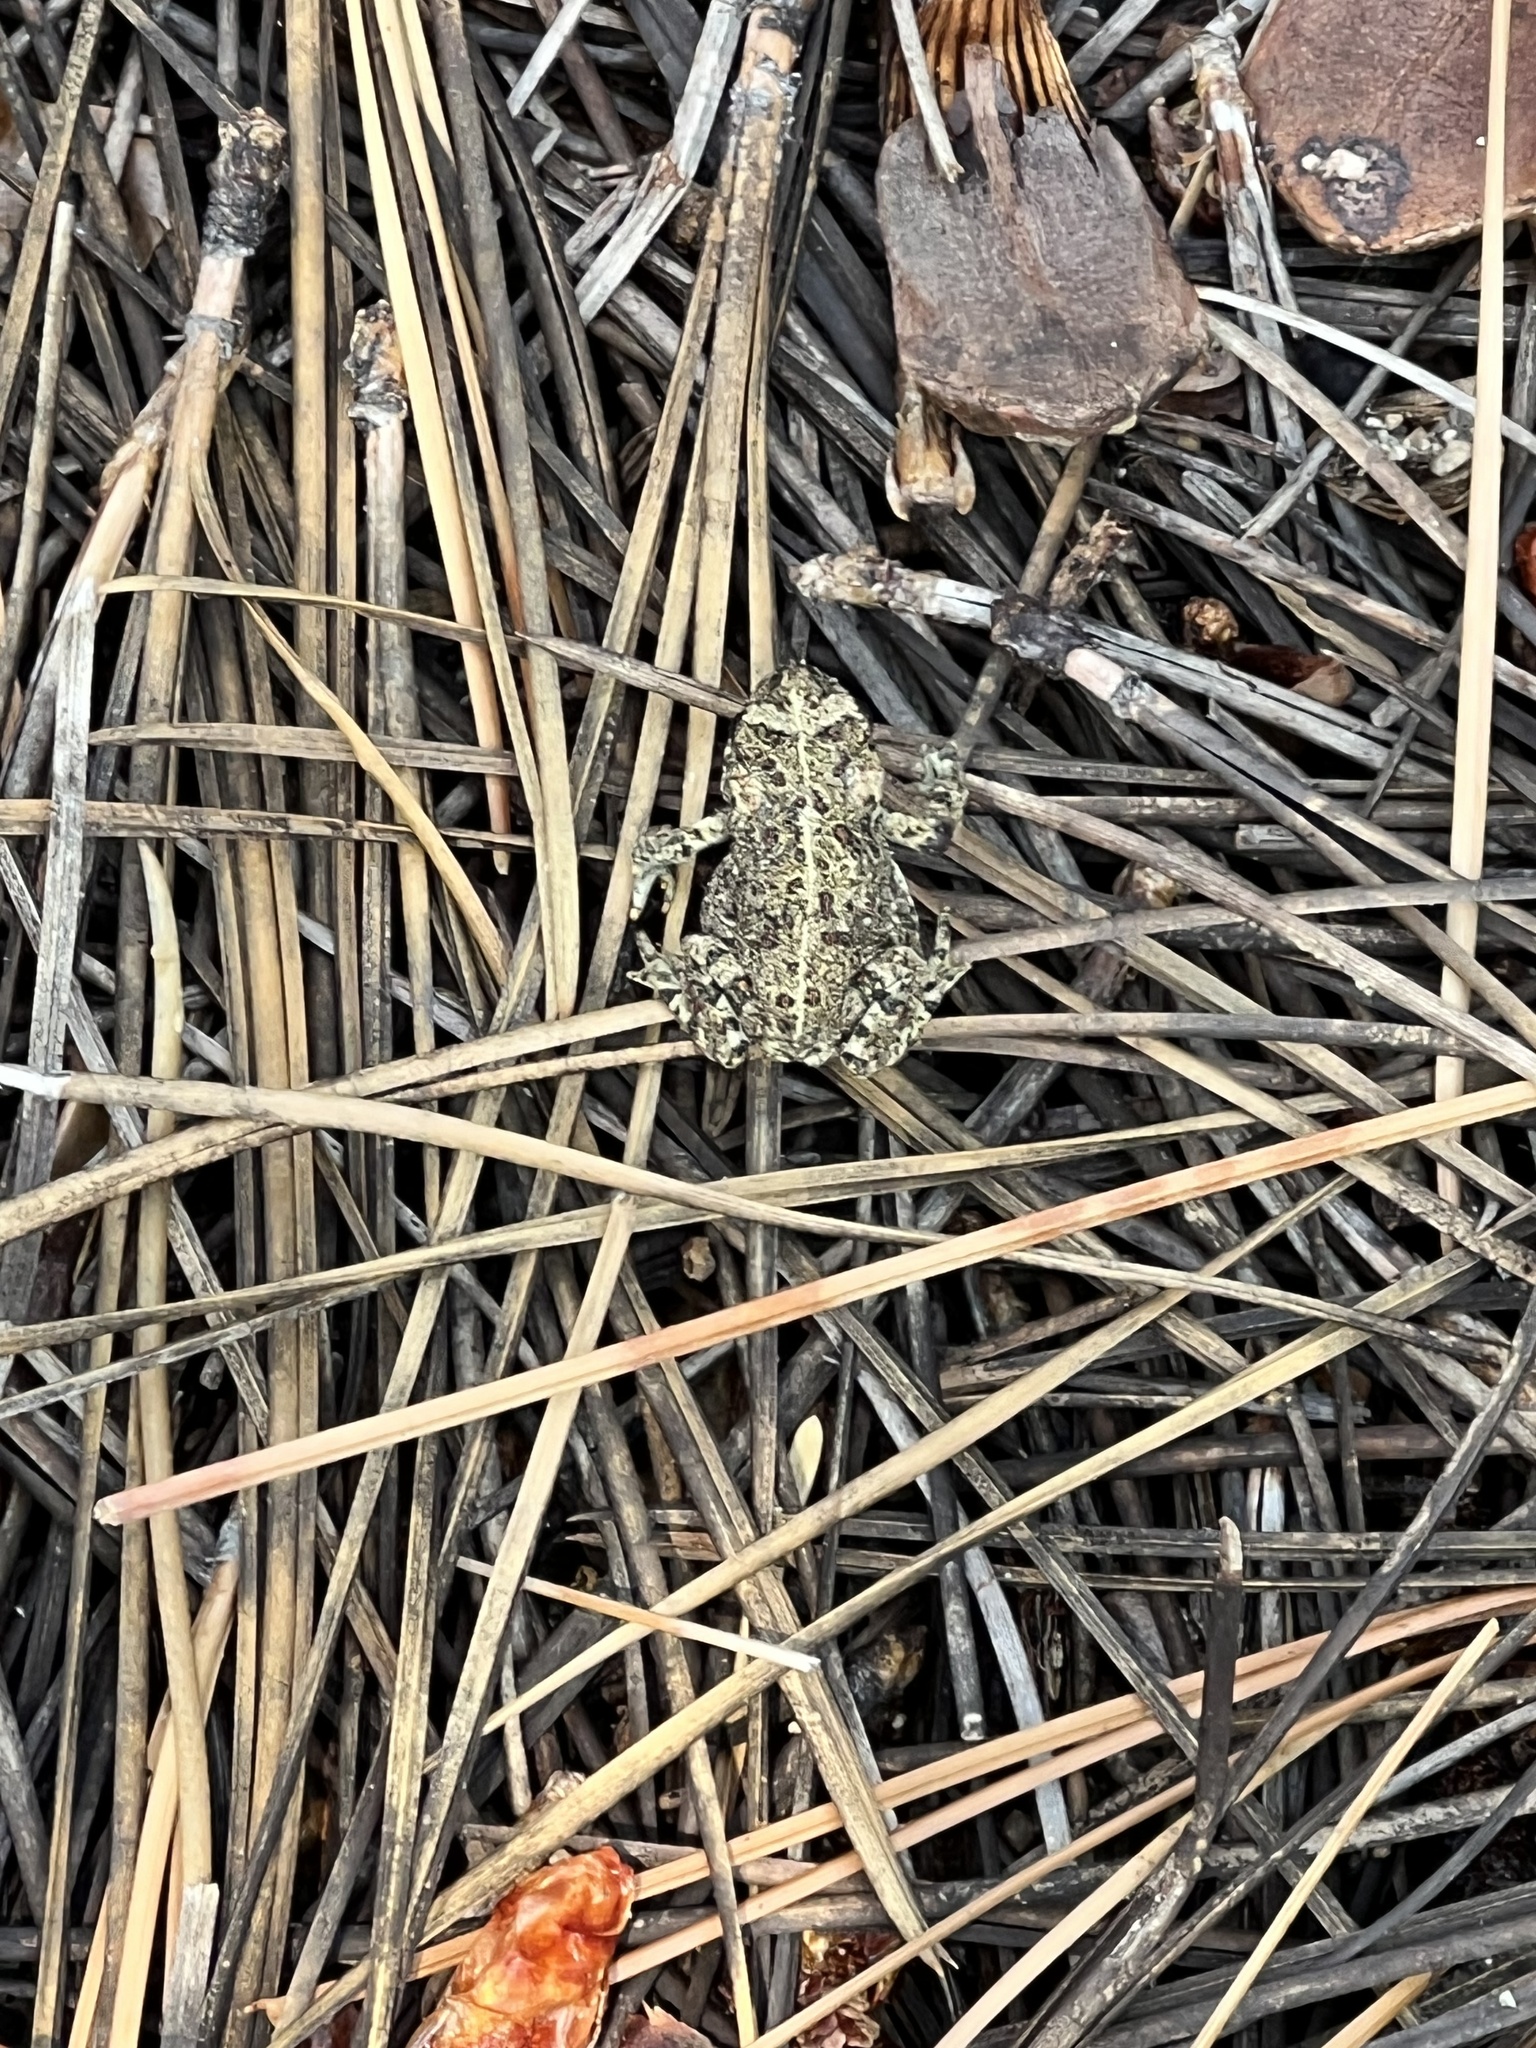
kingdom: Animalia
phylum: Chordata
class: Amphibia
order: Anura
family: Bufonidae
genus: Anaxyrus
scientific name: Anaxyrus boreas
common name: Western toad
